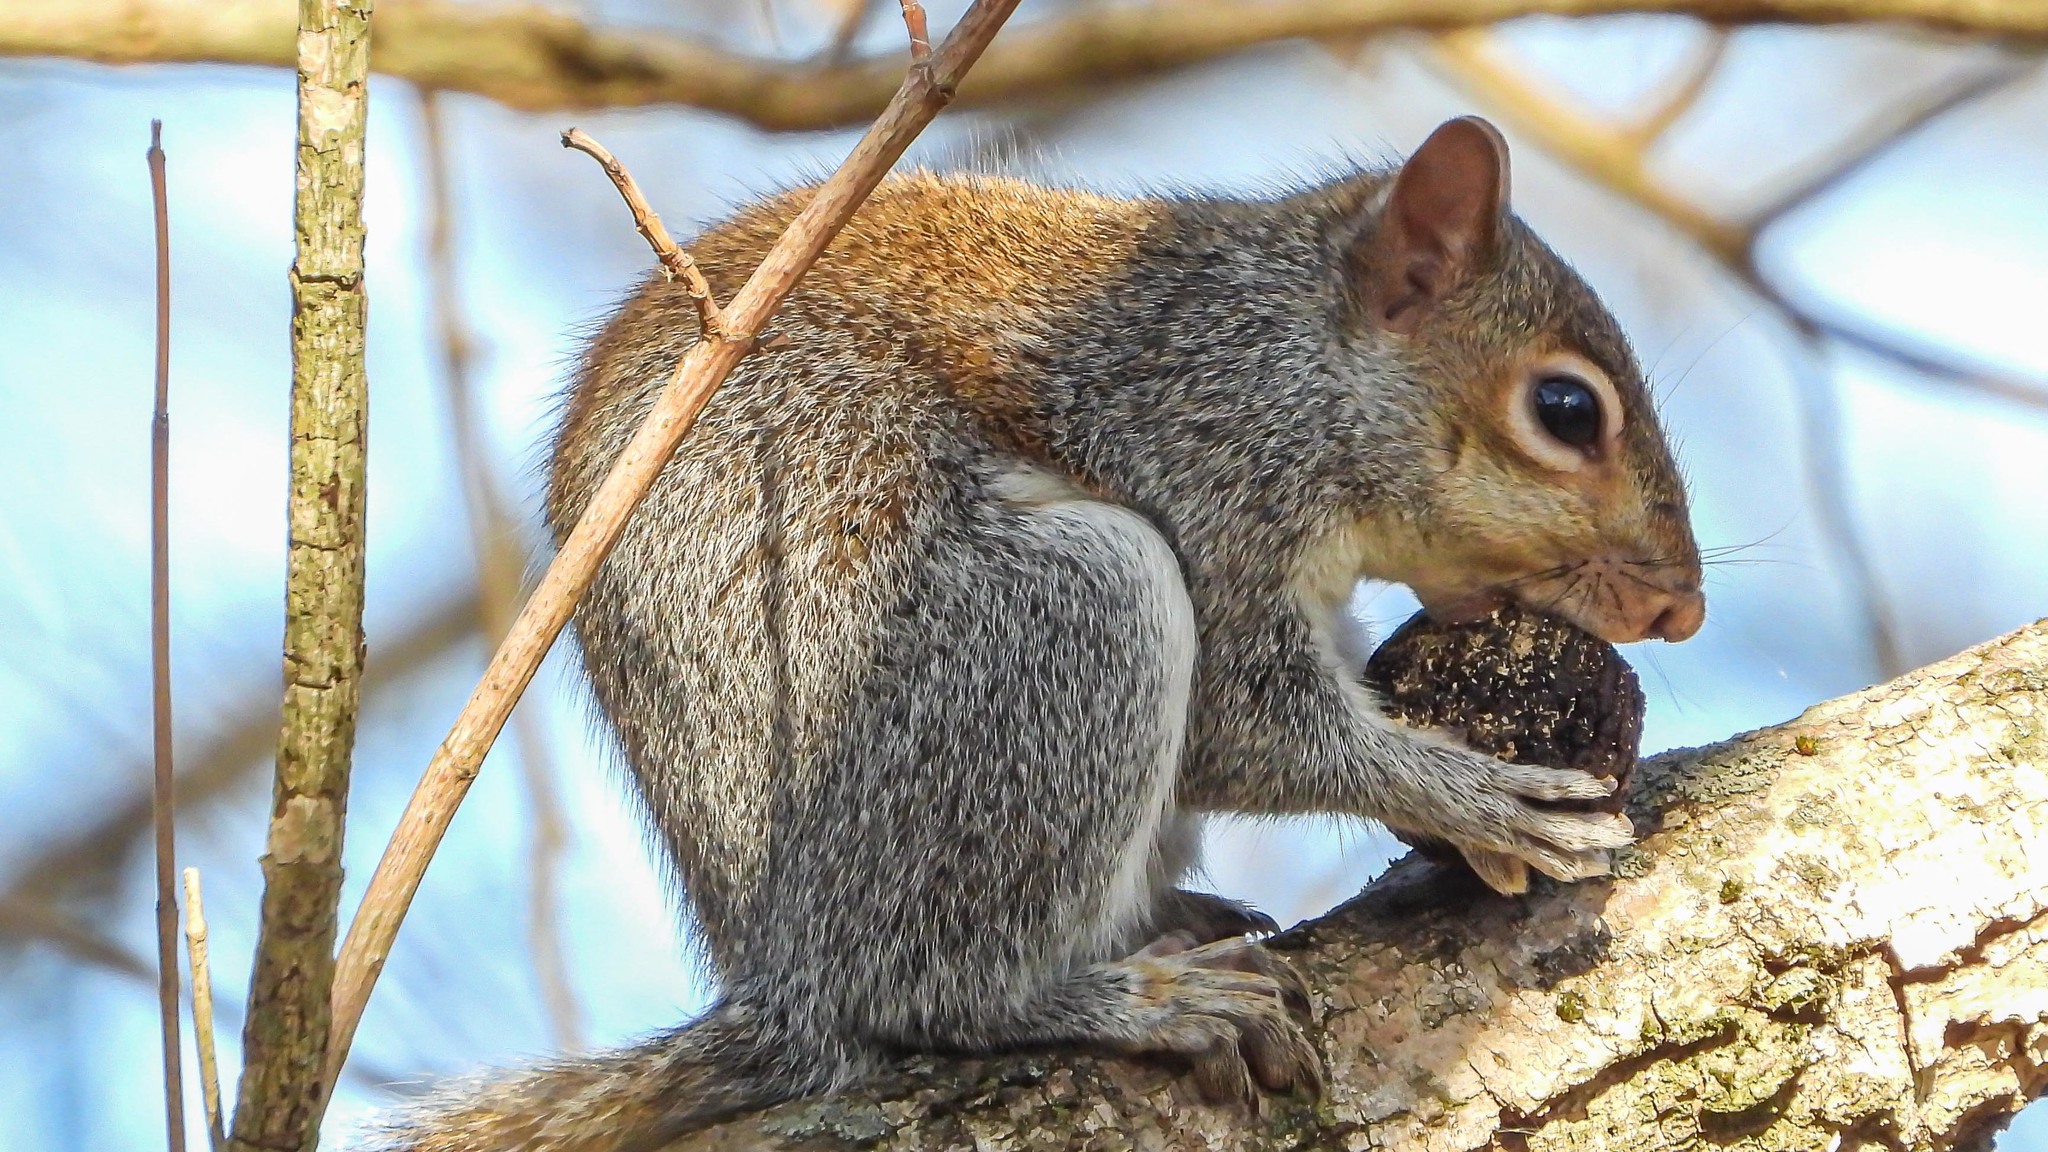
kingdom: Animalia
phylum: Chordata
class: Mammalia
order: Rodentia
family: Sciuridae
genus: Sciurus
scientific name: Sciurus carolinensis
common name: Eastern gray squirrel
